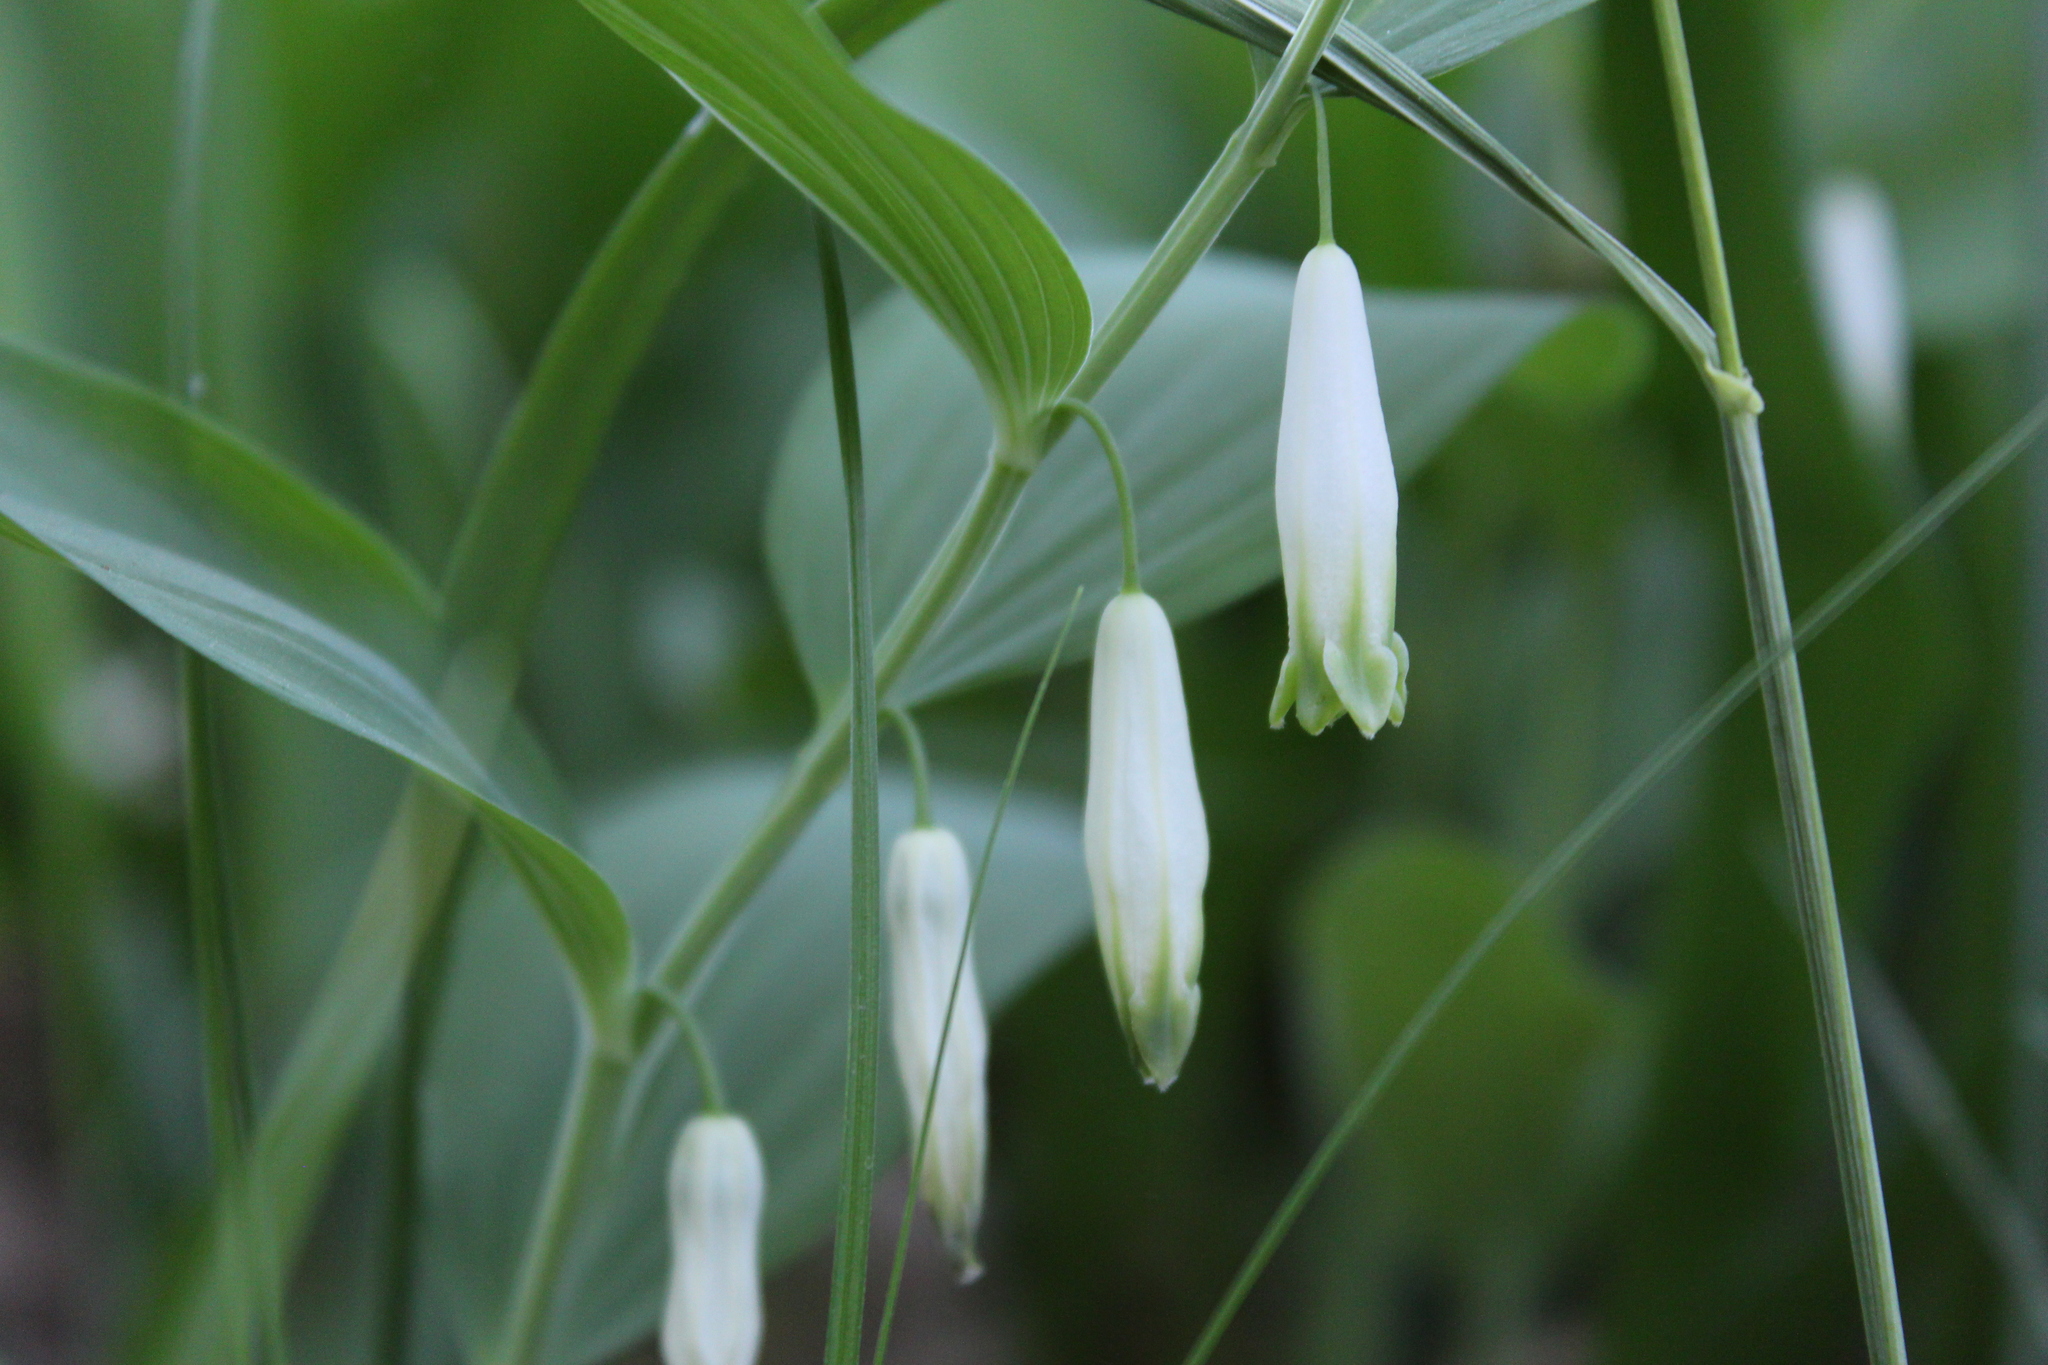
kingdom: Plantae
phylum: Tracheophyta
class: Liliopsida
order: Asparagales
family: Asparagaceae
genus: Polygonatum
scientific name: Polygonatum odoratum
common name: Angular solomon's-seal
